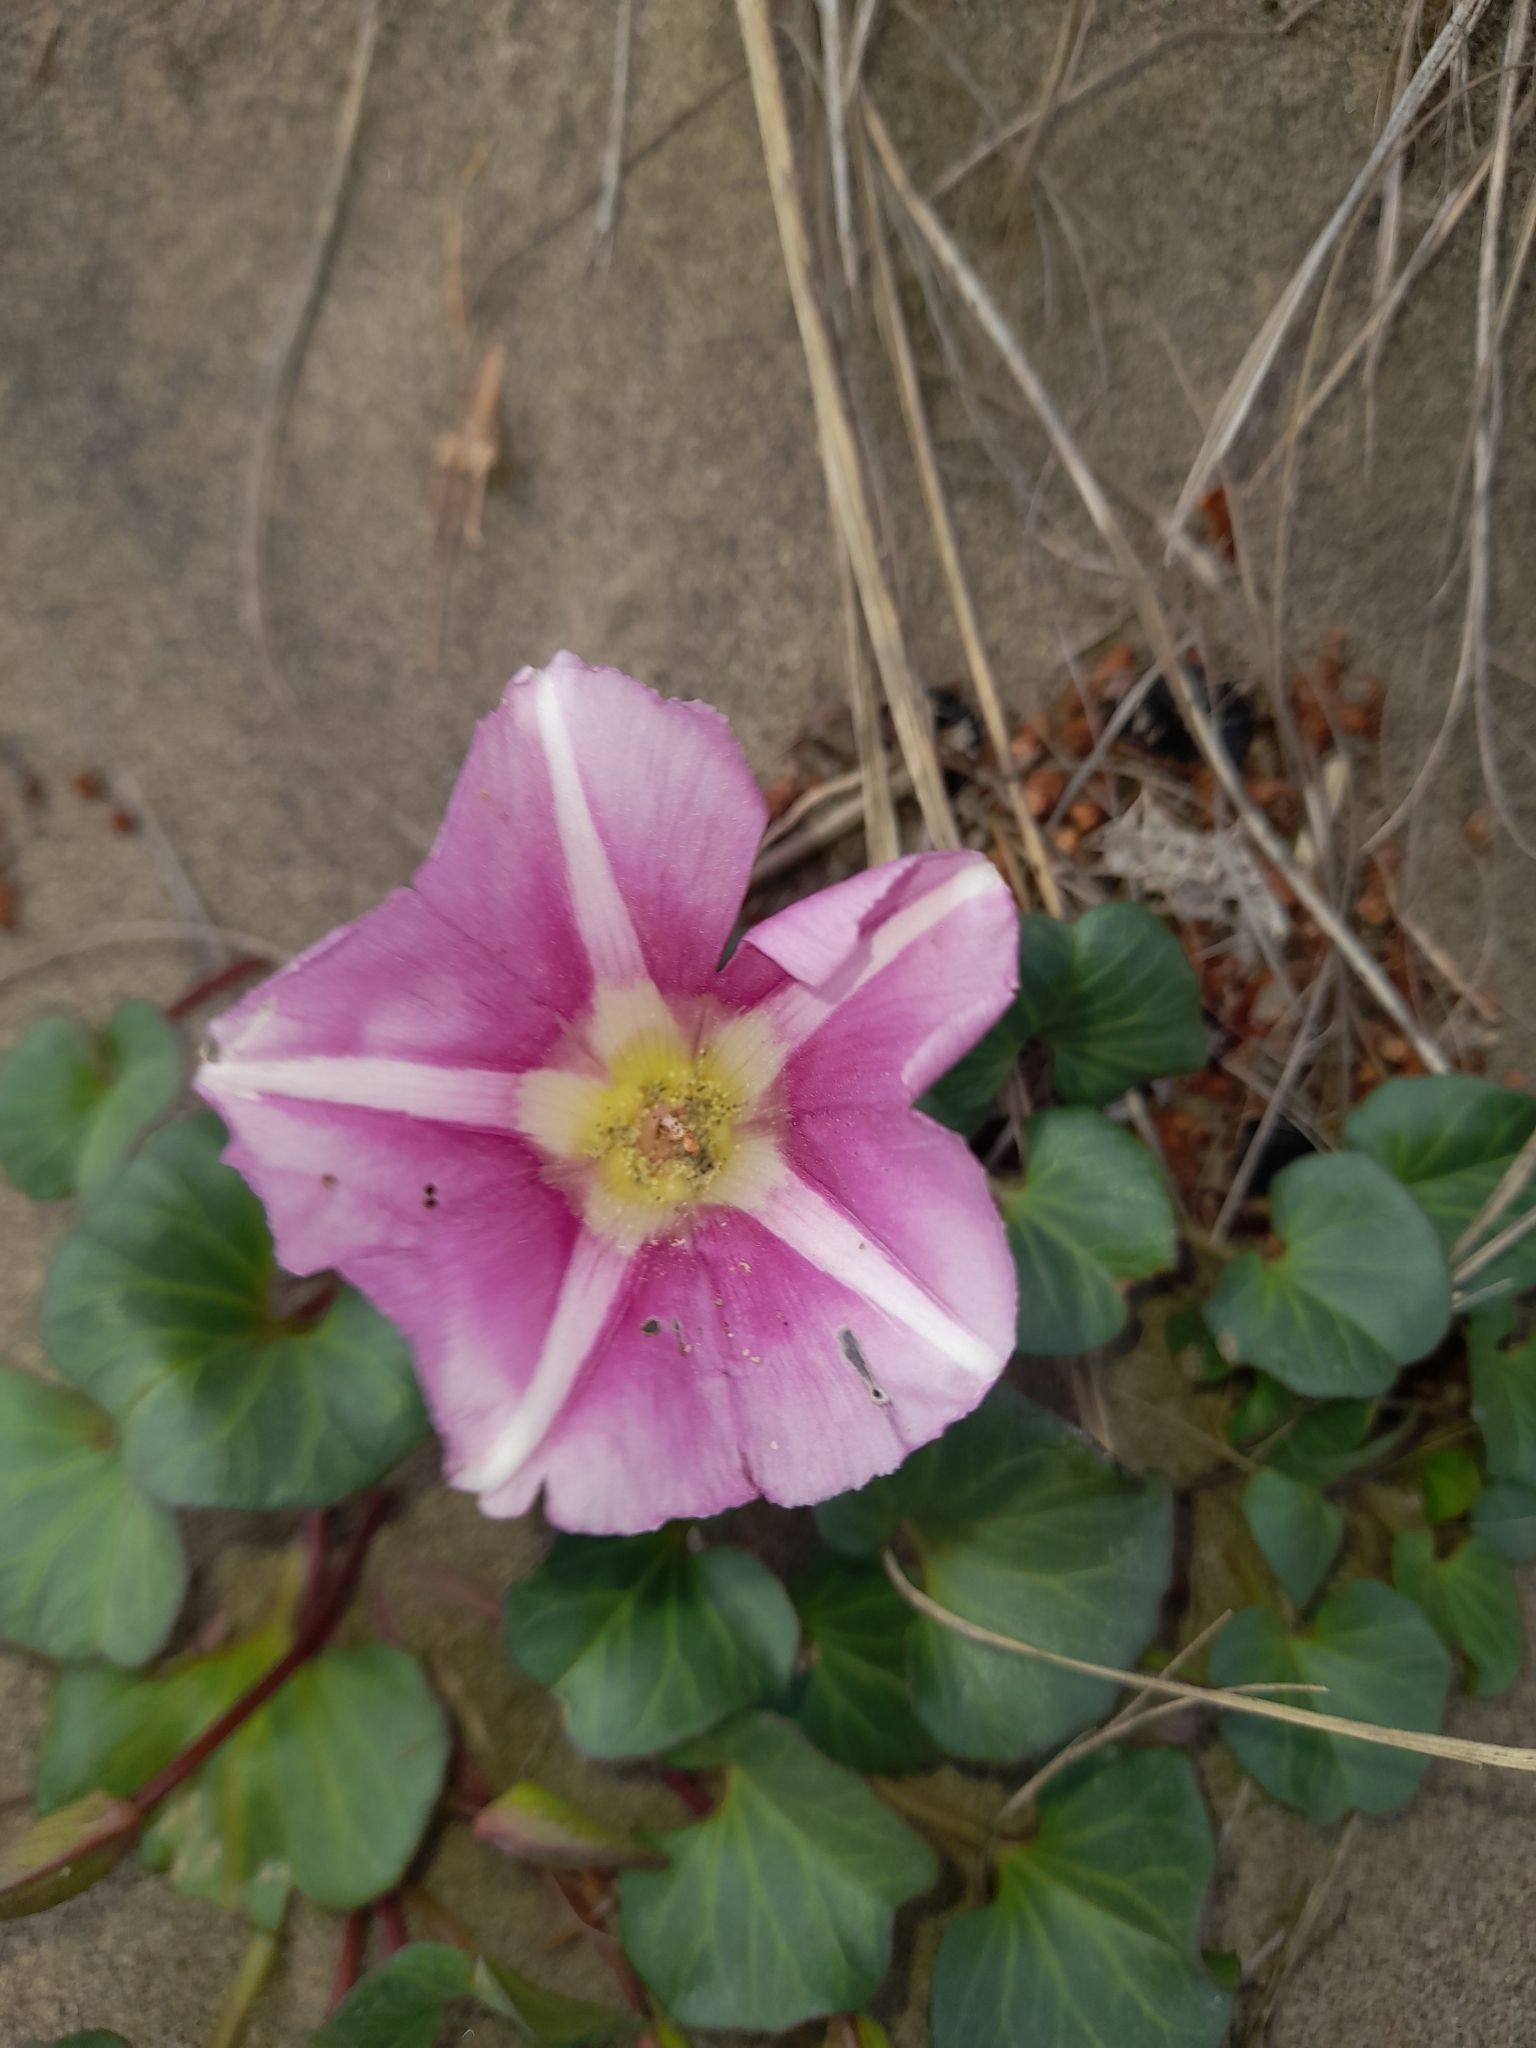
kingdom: Plantae
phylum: Tracheophyta
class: Magnoliopsida
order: Solanales
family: Convolvulaceae
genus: Calystegia
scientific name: Calystegia soldanella
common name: Sea bindweed
